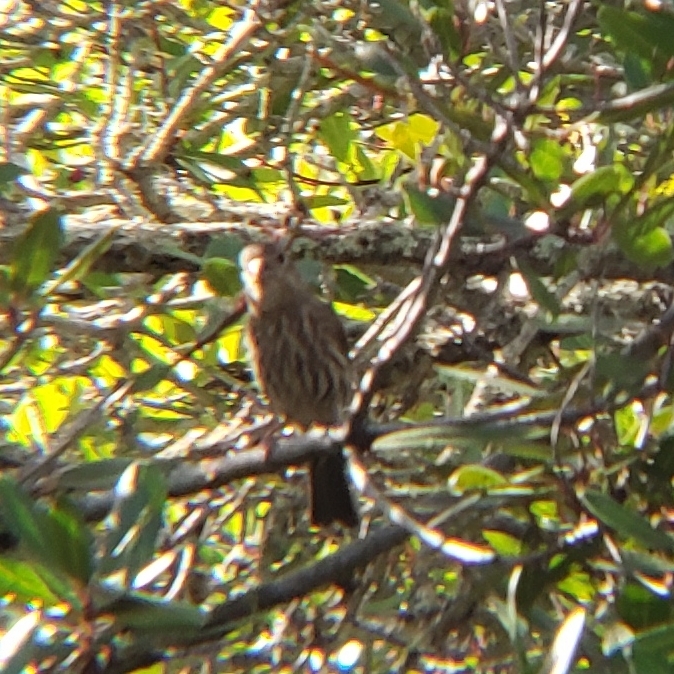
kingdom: Animalia
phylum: Chordata
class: Aves
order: Passeriformes
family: Fringillidae
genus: Haemorhous
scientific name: Haemorhous mexicanus
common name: House finch
